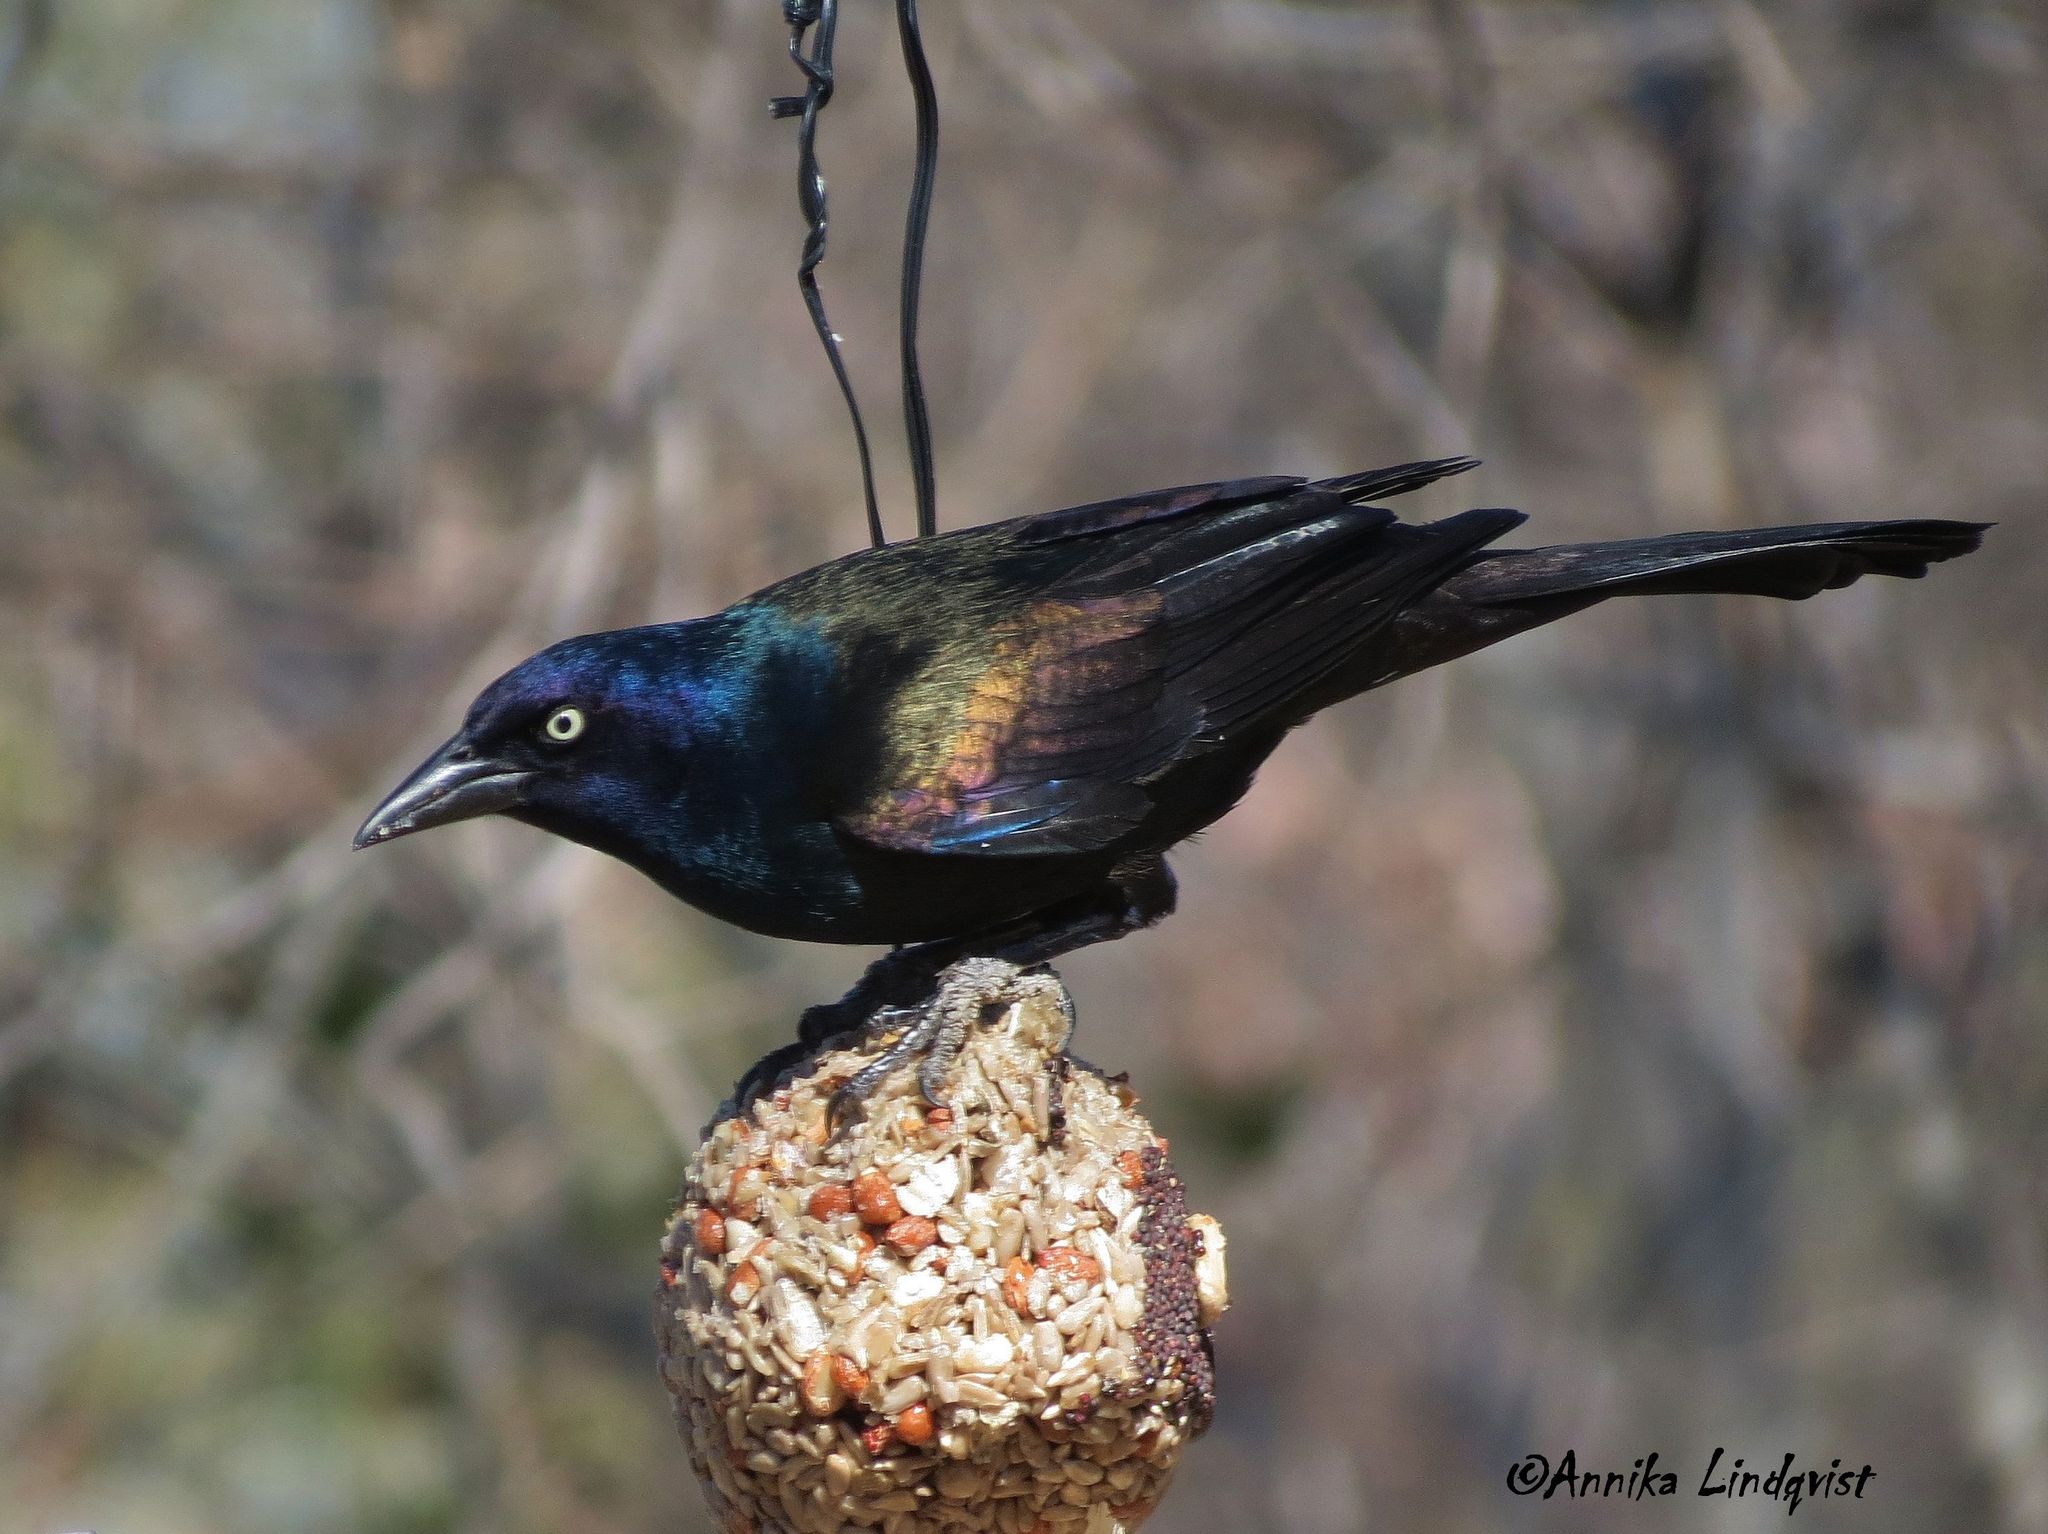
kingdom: Animalia
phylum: Chordata
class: Aves
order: Passeriformes
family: Icteridae
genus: Quiscalus
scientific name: Quiscalus quiscula
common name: Common grackle
